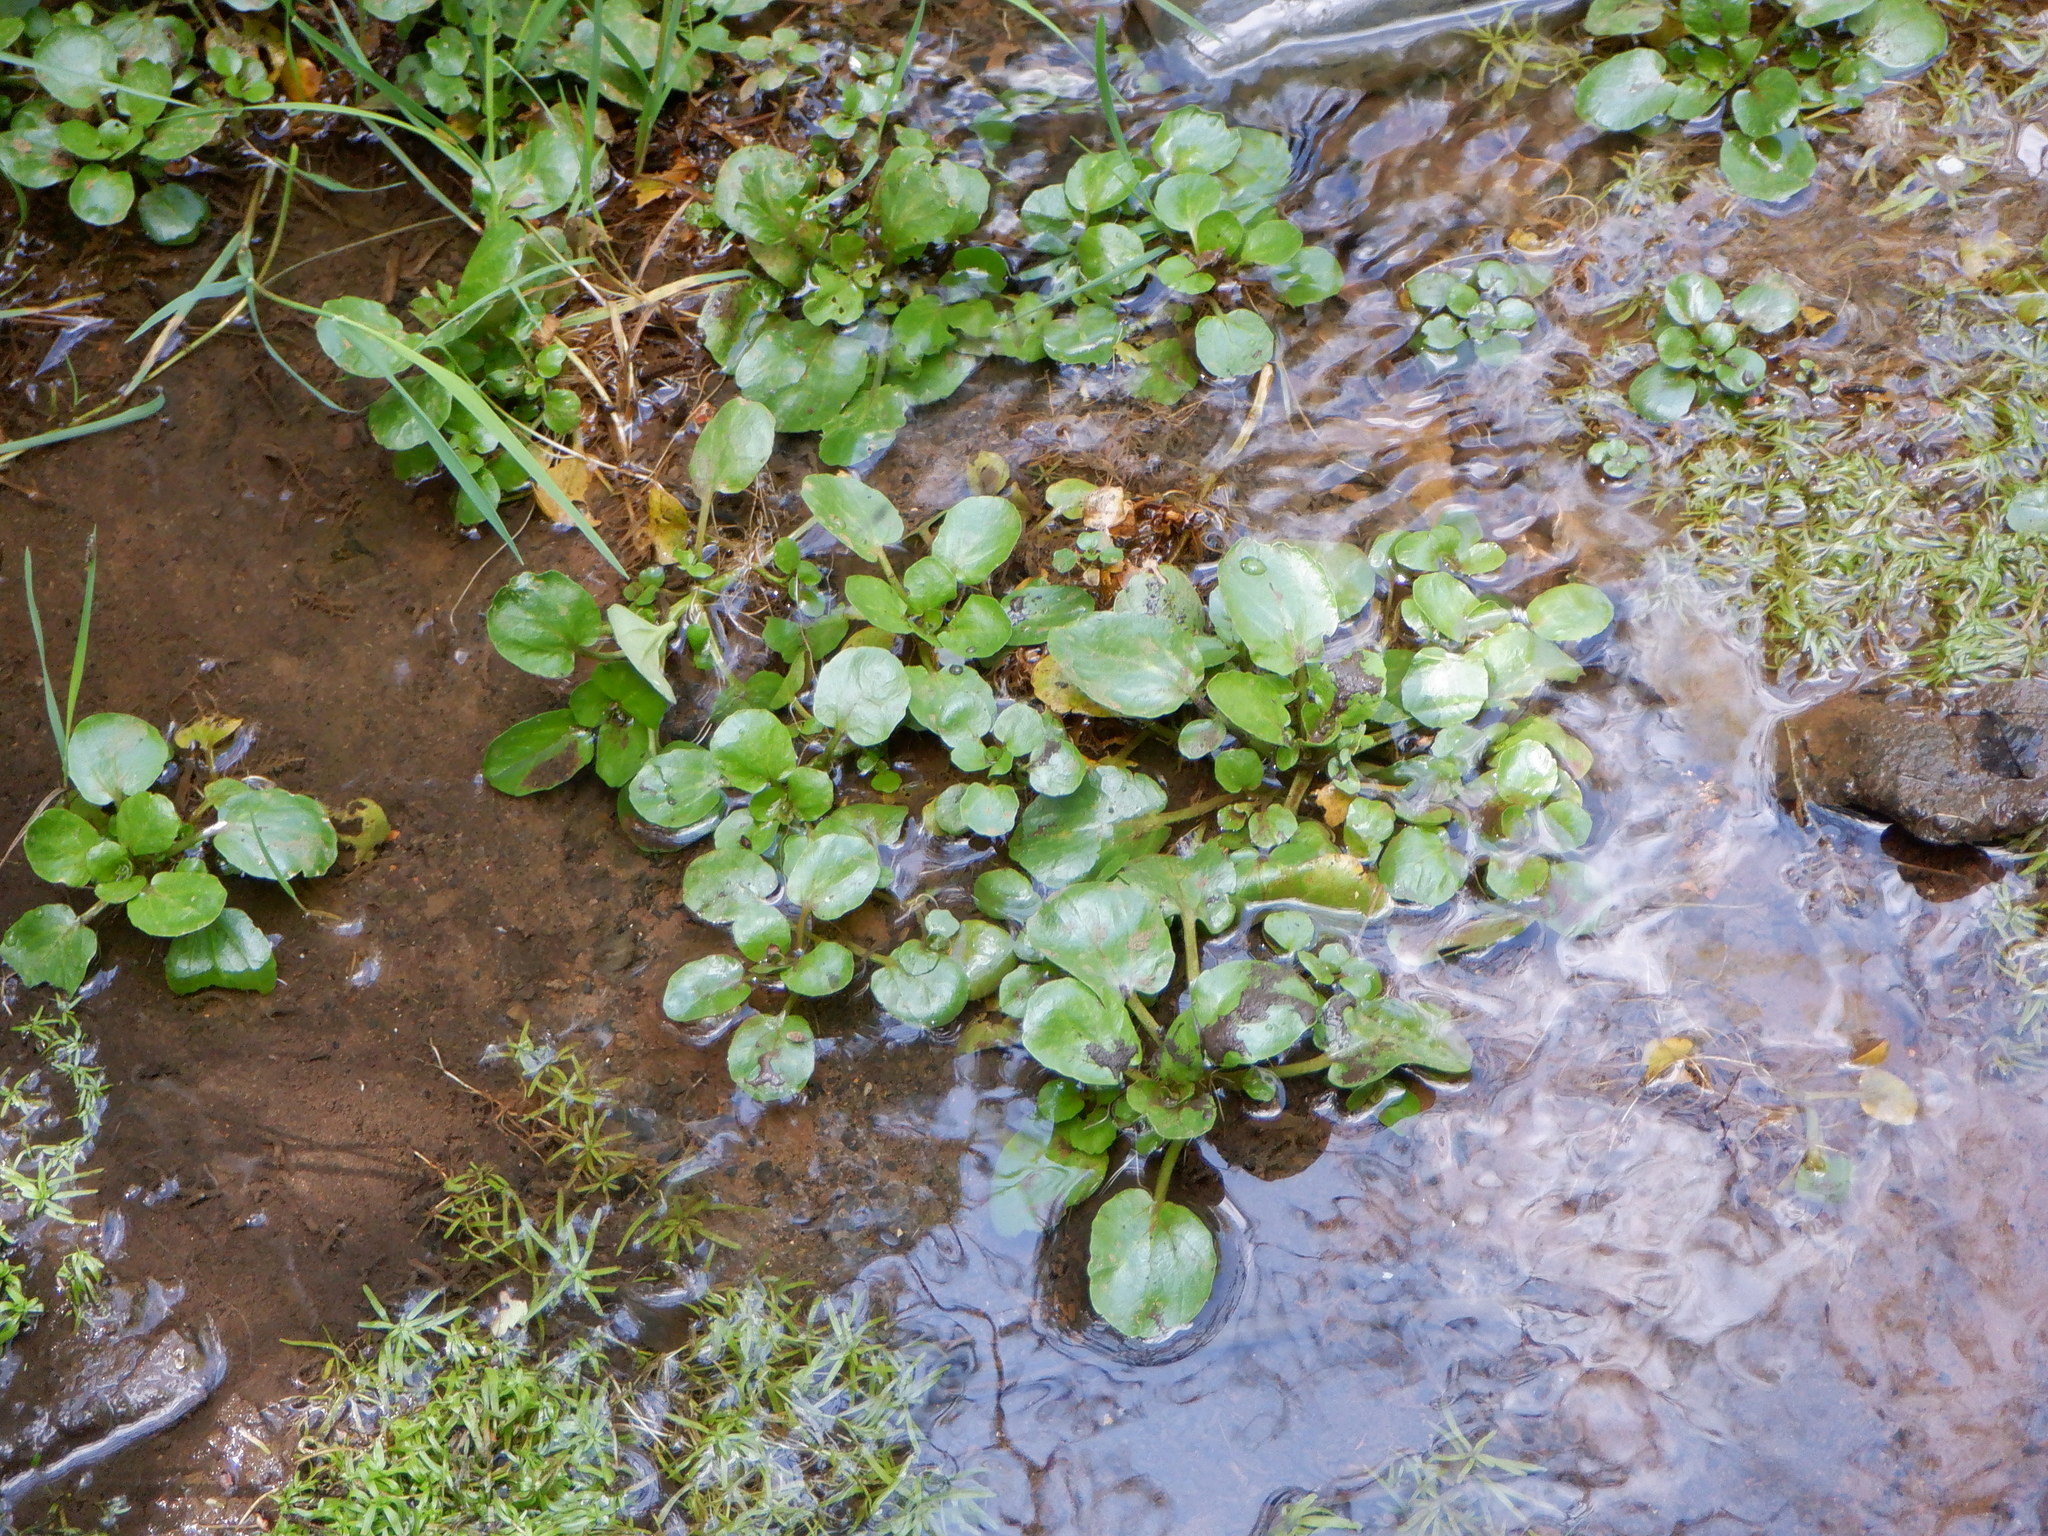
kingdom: Plantae
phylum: Tracheophyta
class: Magnoliopsida
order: Brassicales
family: Brassicaceae
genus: Nasturtium
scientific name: Nasturtium officinale
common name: Watercress
